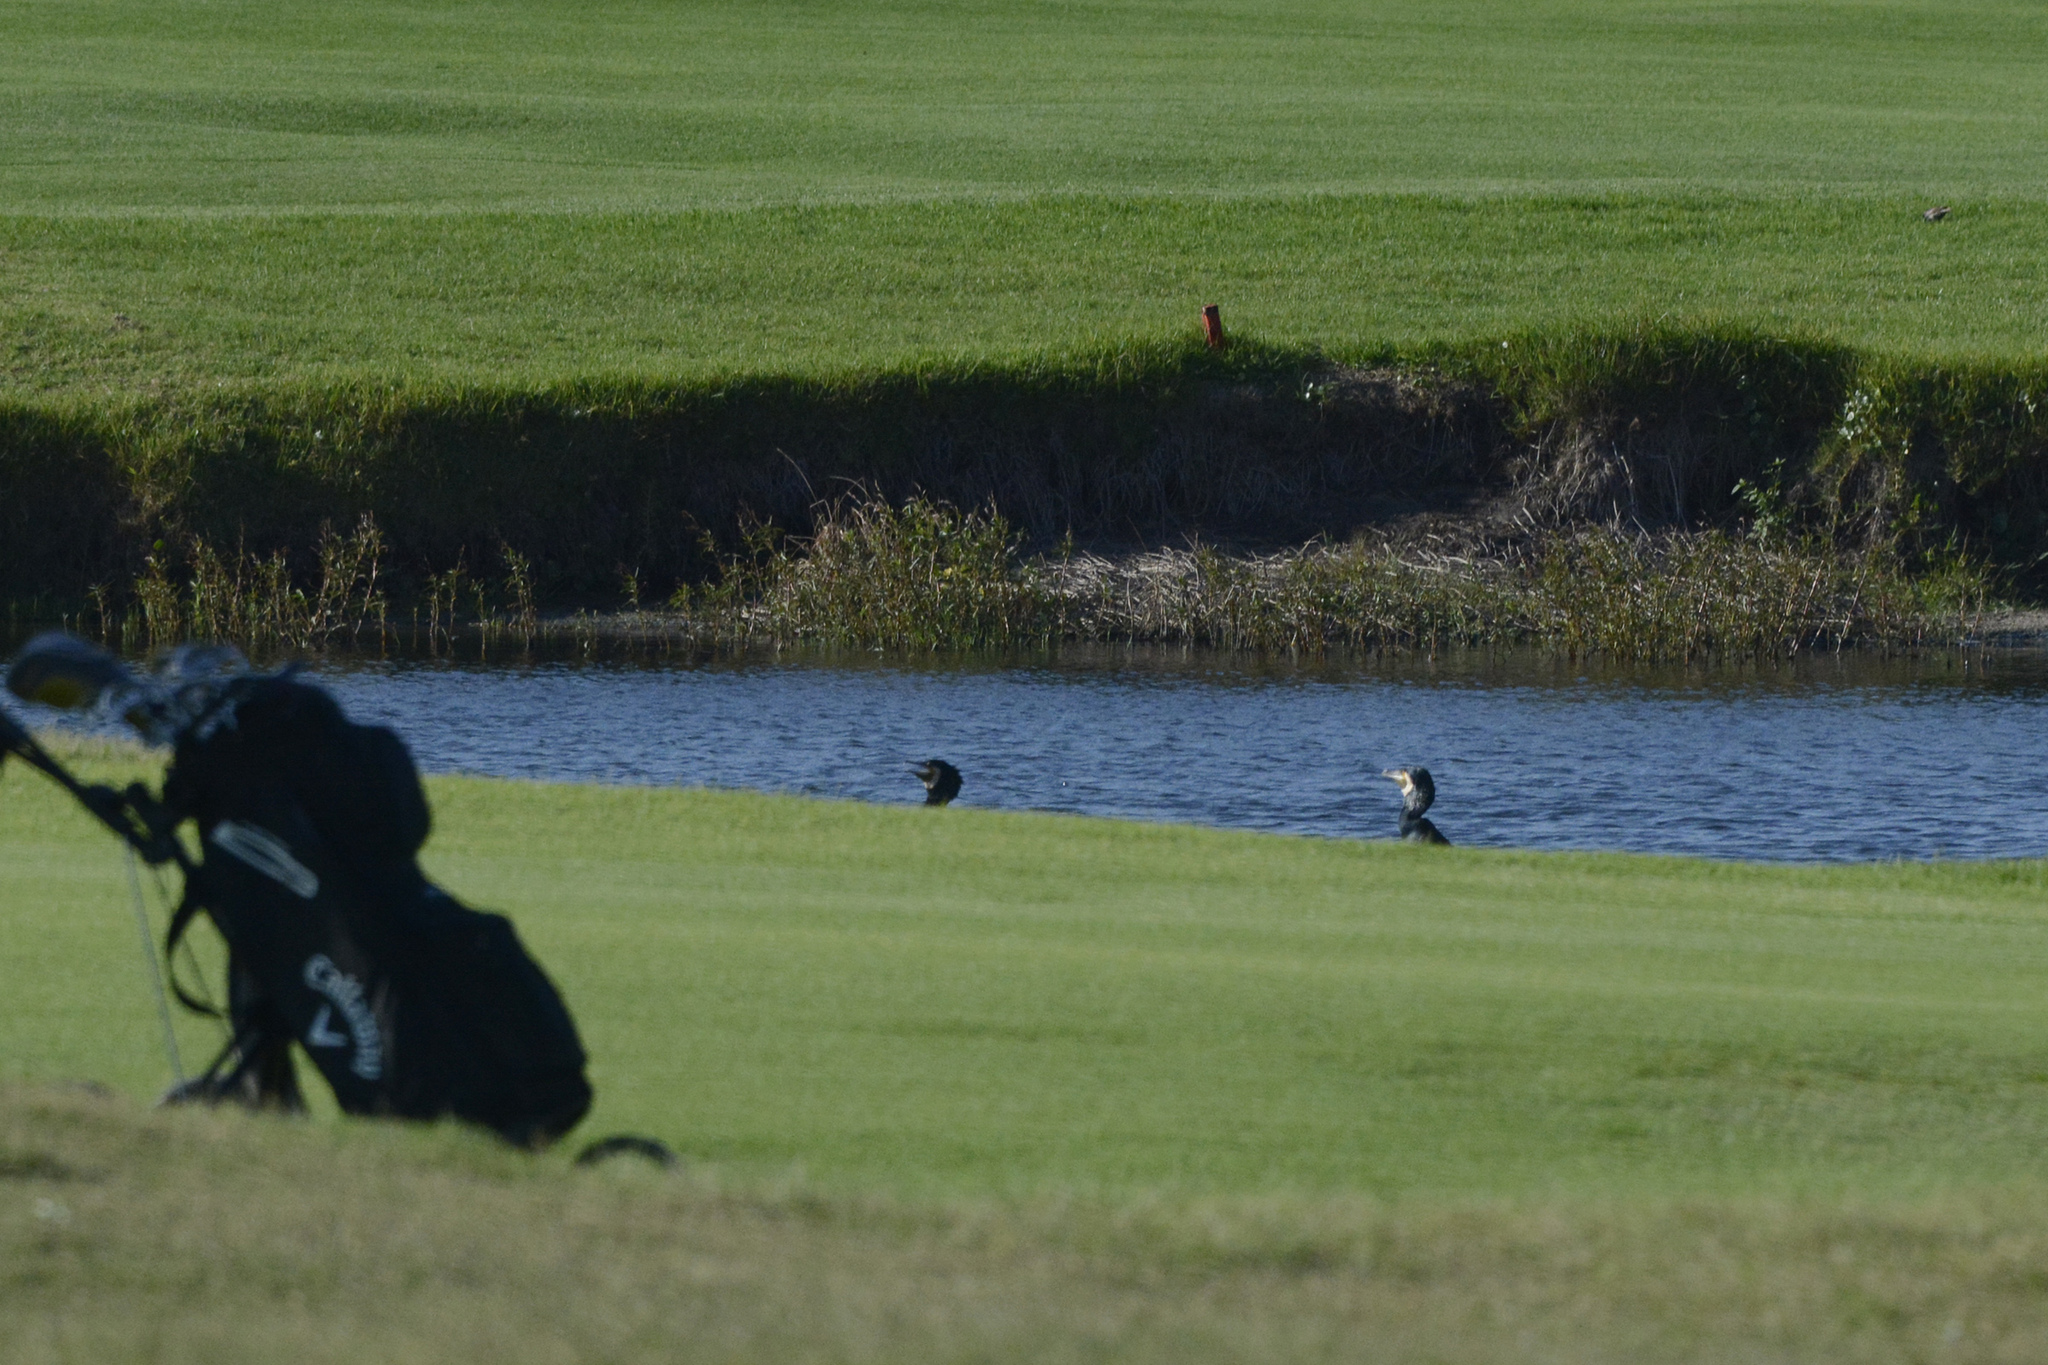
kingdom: Animalia
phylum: Chordata
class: Aves
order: Suliformes
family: Phalacrocoracidae
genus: Phalacrocorax
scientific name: Phalacrocorax carbo
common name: Great cormorant
